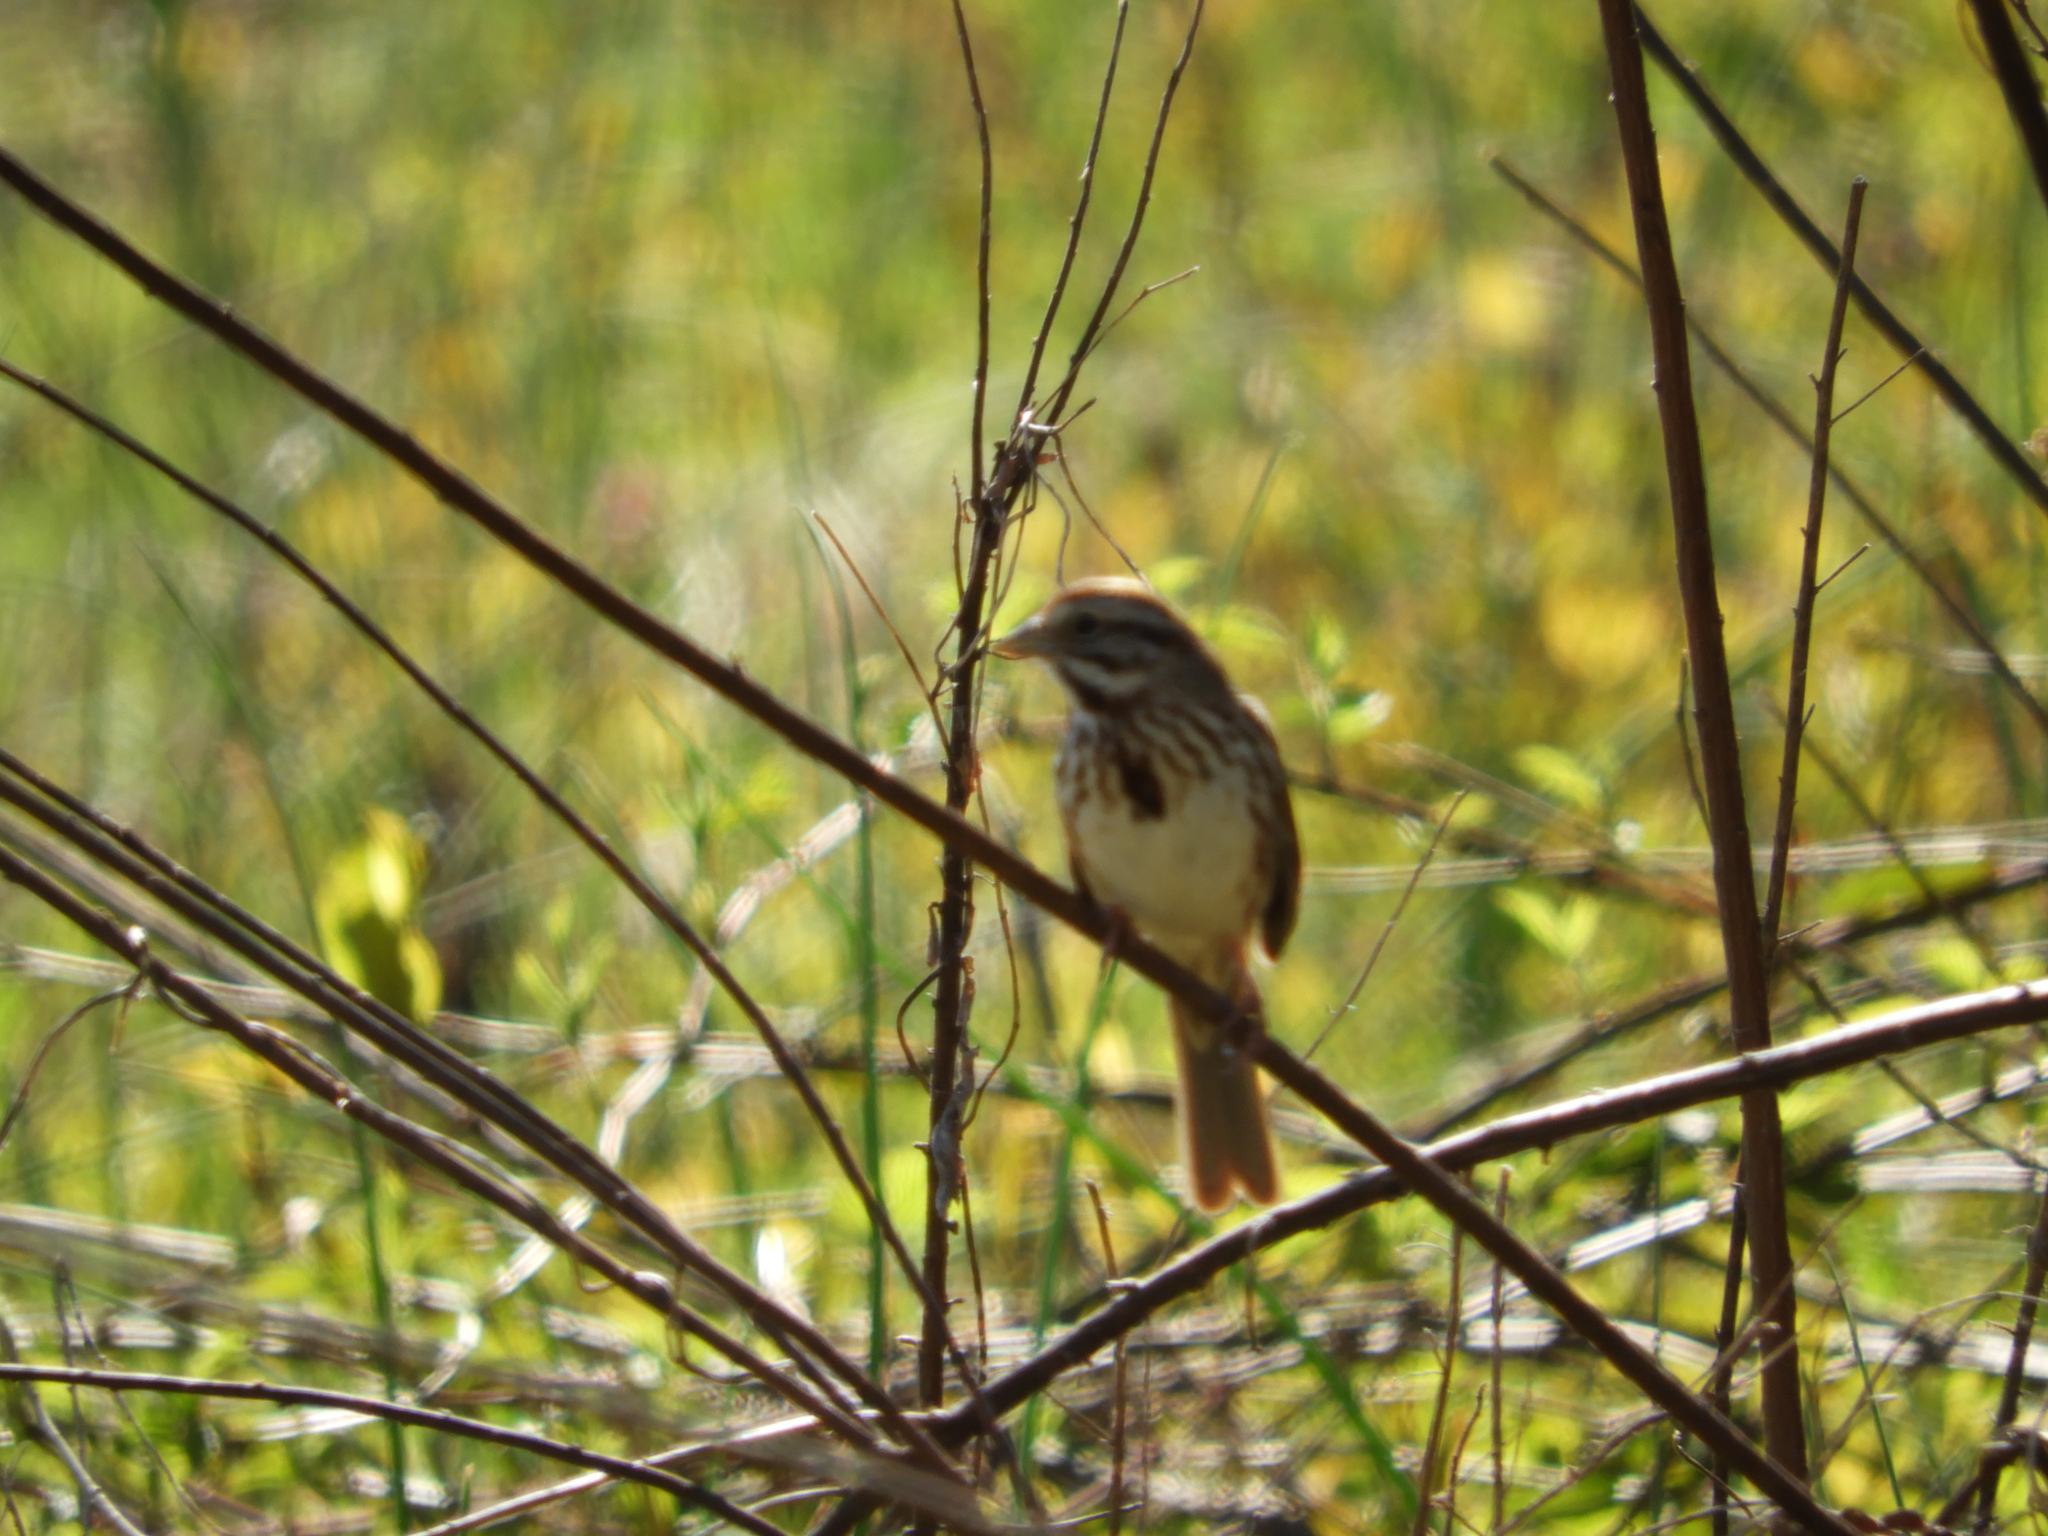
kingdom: Animalia
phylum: Chordata
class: Aves
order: Passeriformes
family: Passerellidae
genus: Melospiza
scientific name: Melospiza melodia
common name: Song sparrow
